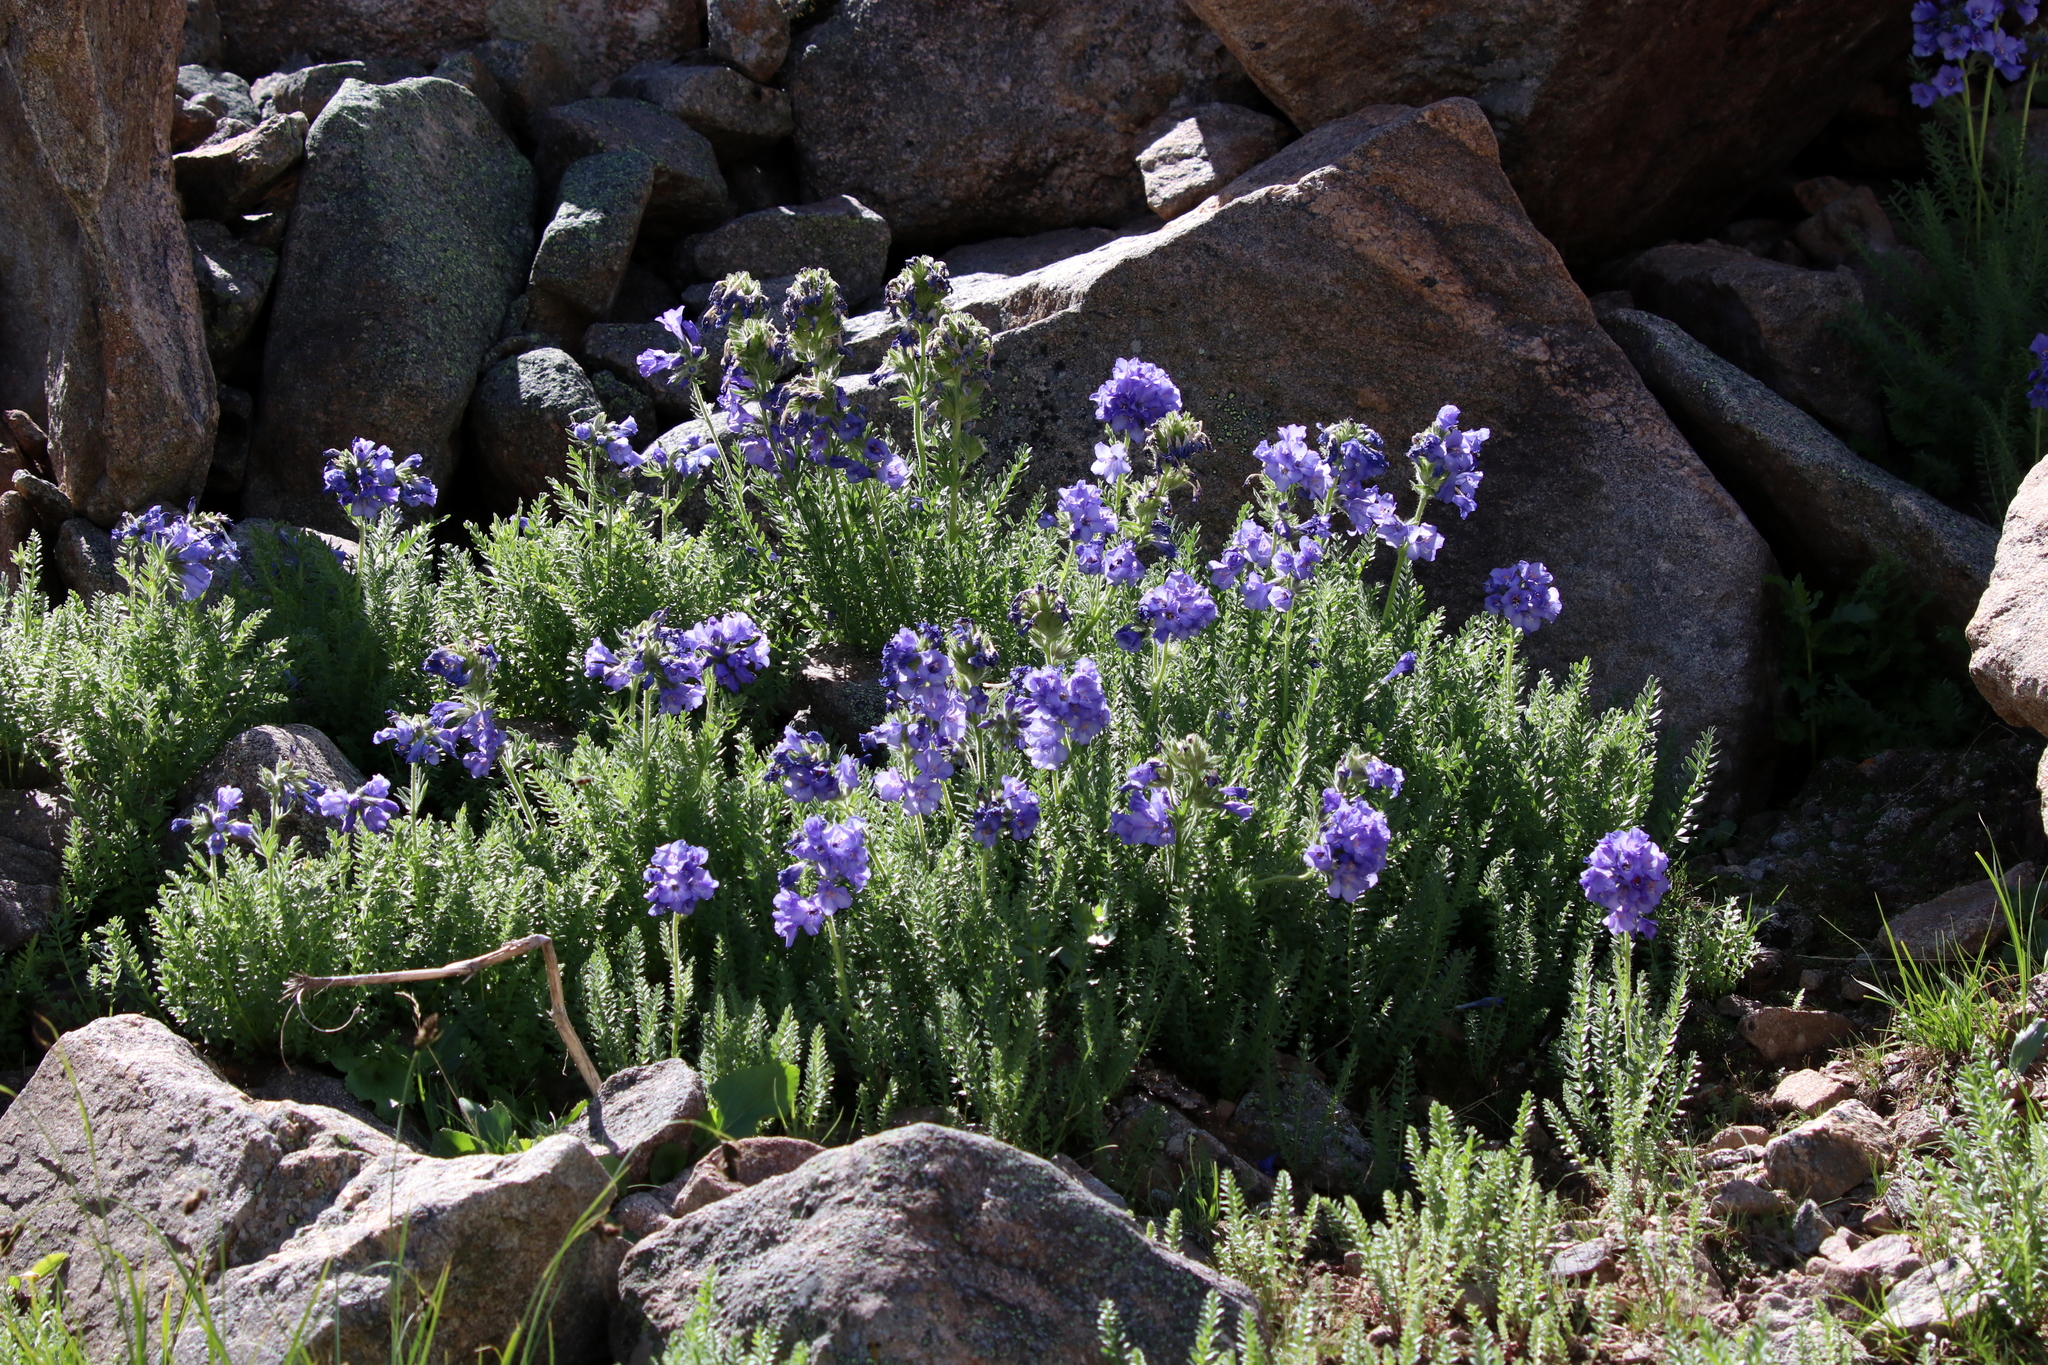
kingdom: Plantae
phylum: Tracheophyta
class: Magnoliopsida
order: Ericales
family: Polemoniaceae
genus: Polemonium
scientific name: Polemonium viscosum
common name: Skunk jacob's-ladder
